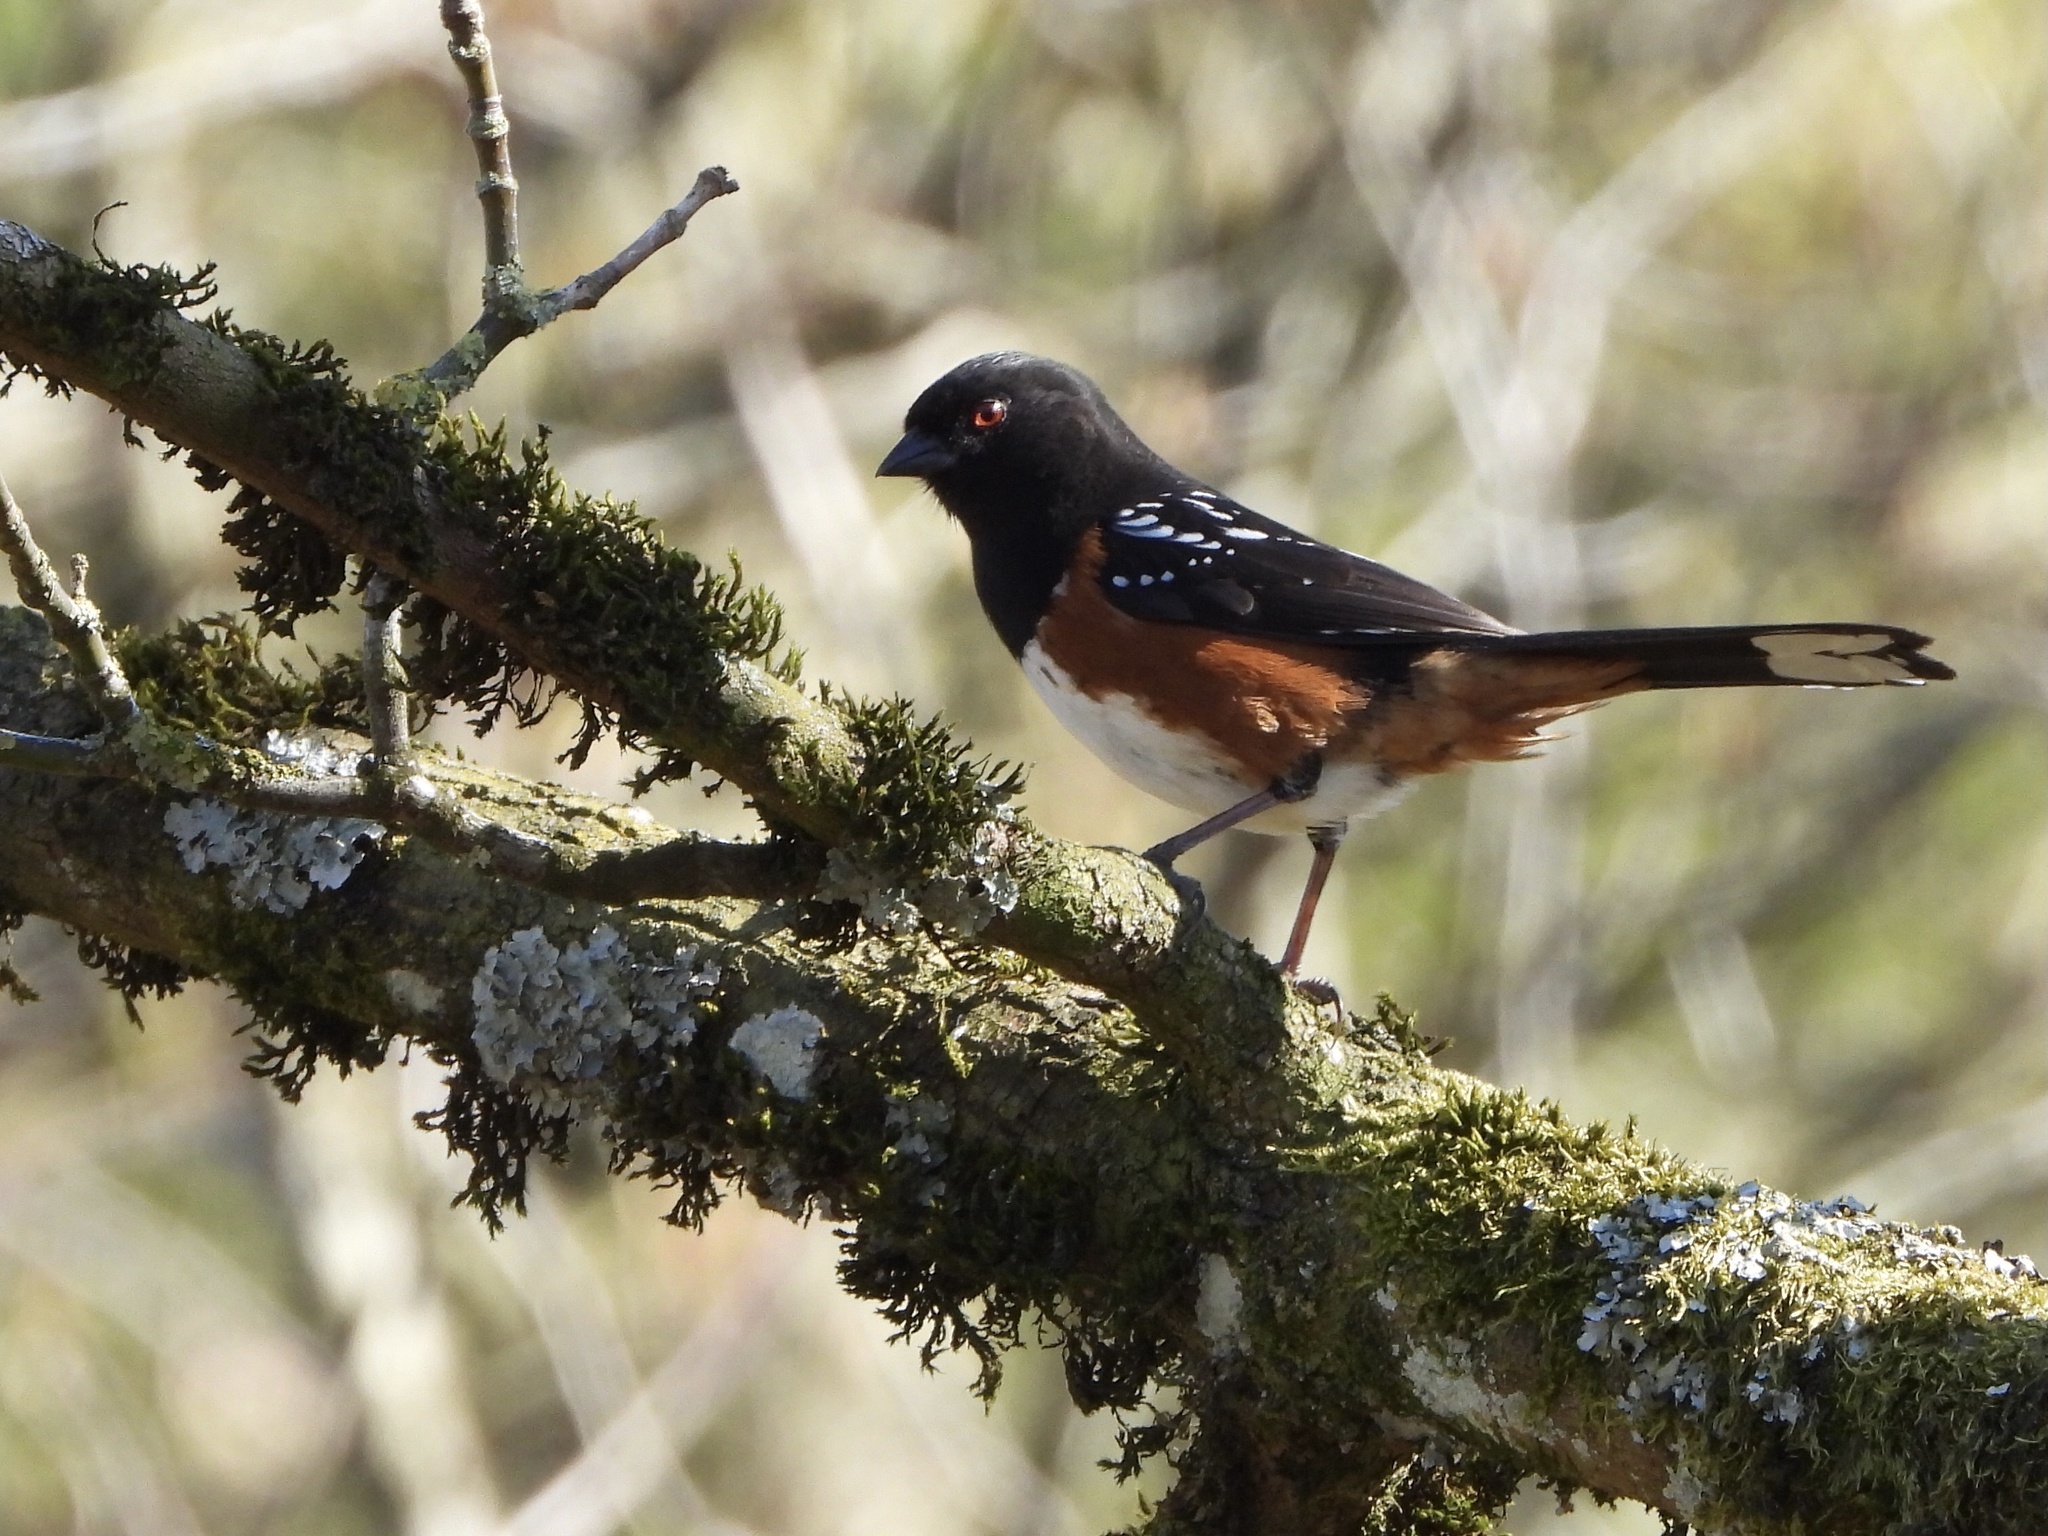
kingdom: Animalia
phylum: Chordata
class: Aves
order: Passeriformes
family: Passerellidae
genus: Pipilo
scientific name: Pipilo maculatus
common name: Spotted towhee
